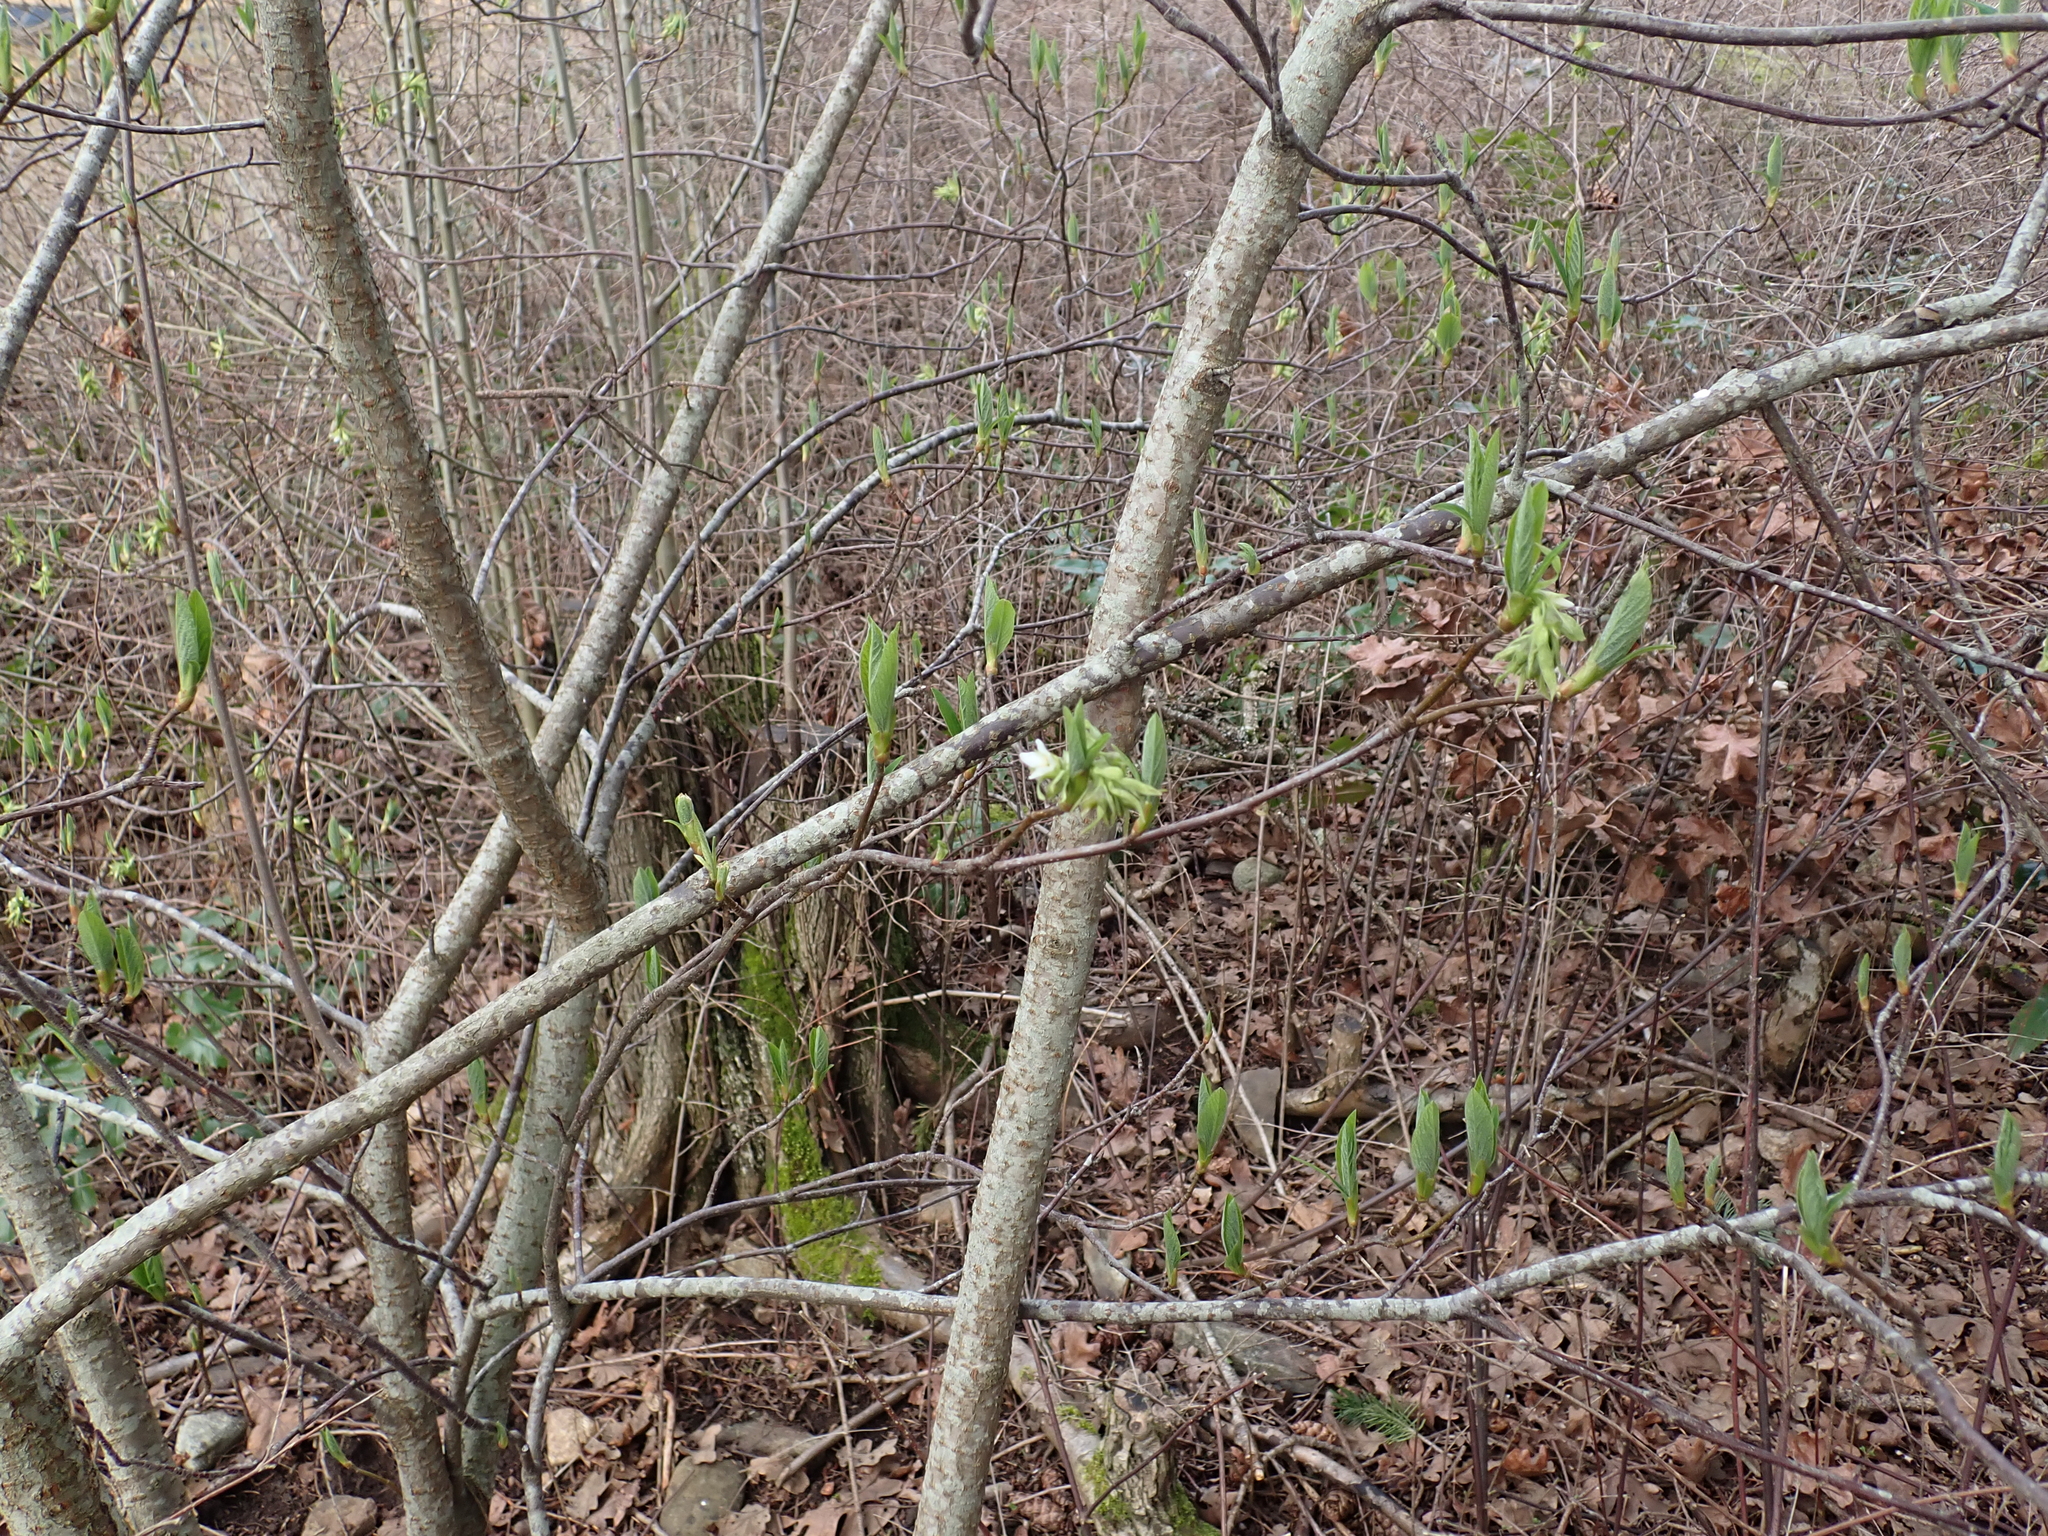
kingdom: Plantae
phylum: Tracheophyta
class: Magnoliopsida
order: Rosales
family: Rosaceae
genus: Oemleria
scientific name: Oemleria cerasiformis
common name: Osoberry
